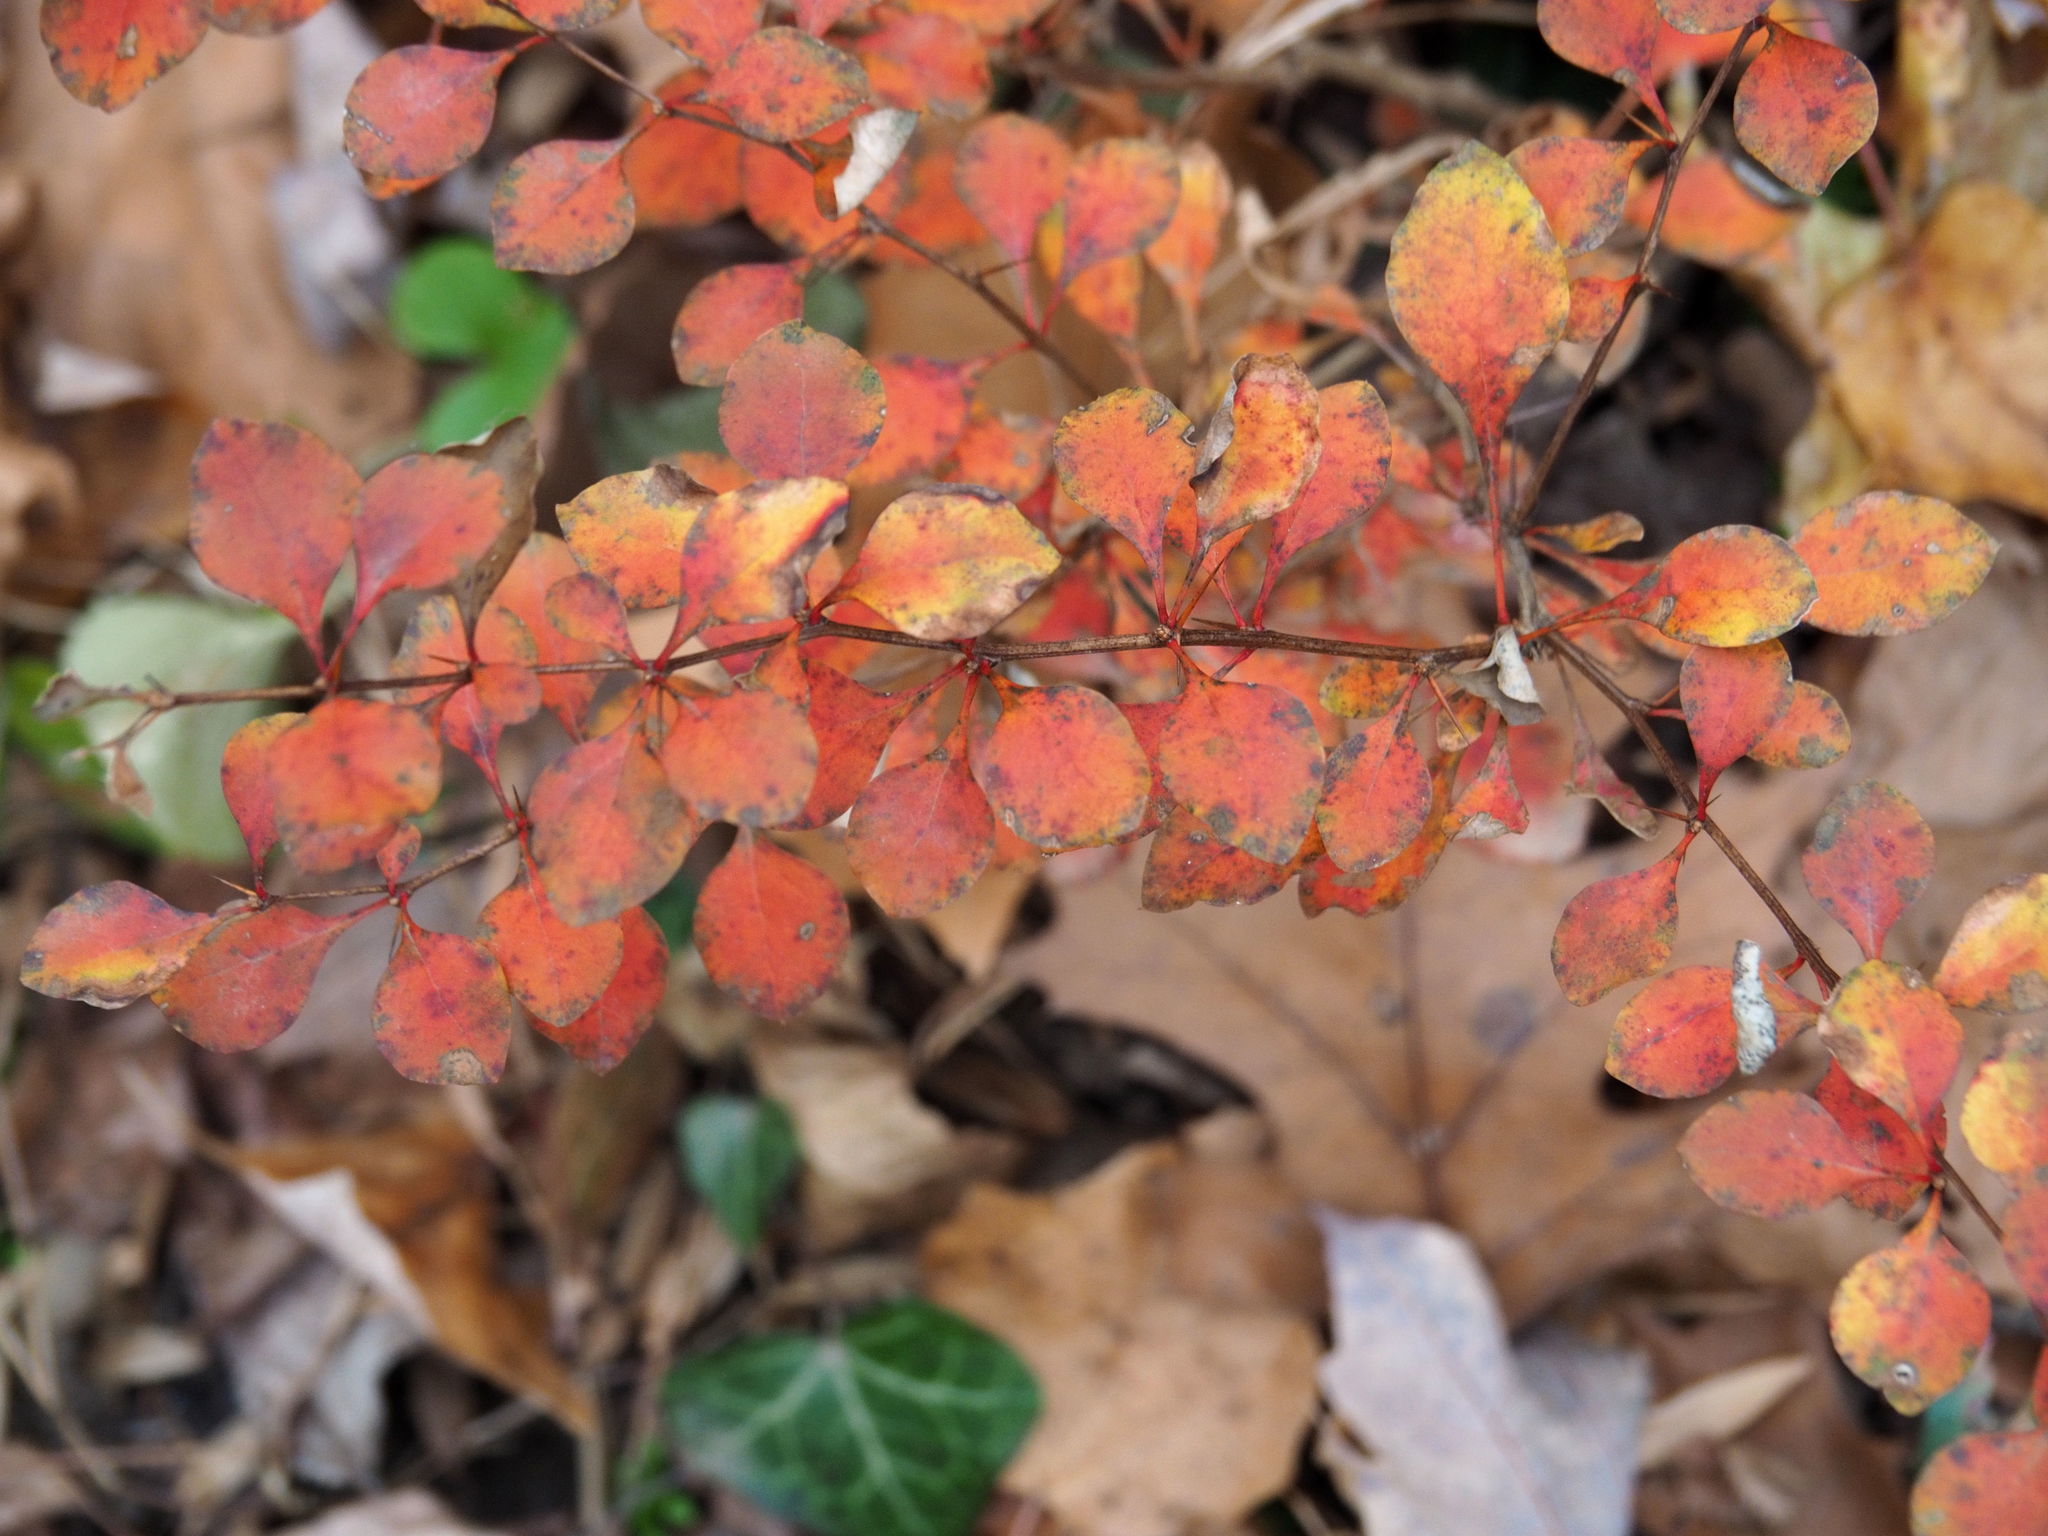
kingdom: Plantae
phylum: Tracheophyta
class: Magnoliopsida
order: Ranunculales
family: Berberidaceae
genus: Berberis
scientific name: Berberis thunbergii
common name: Japanese barberry
